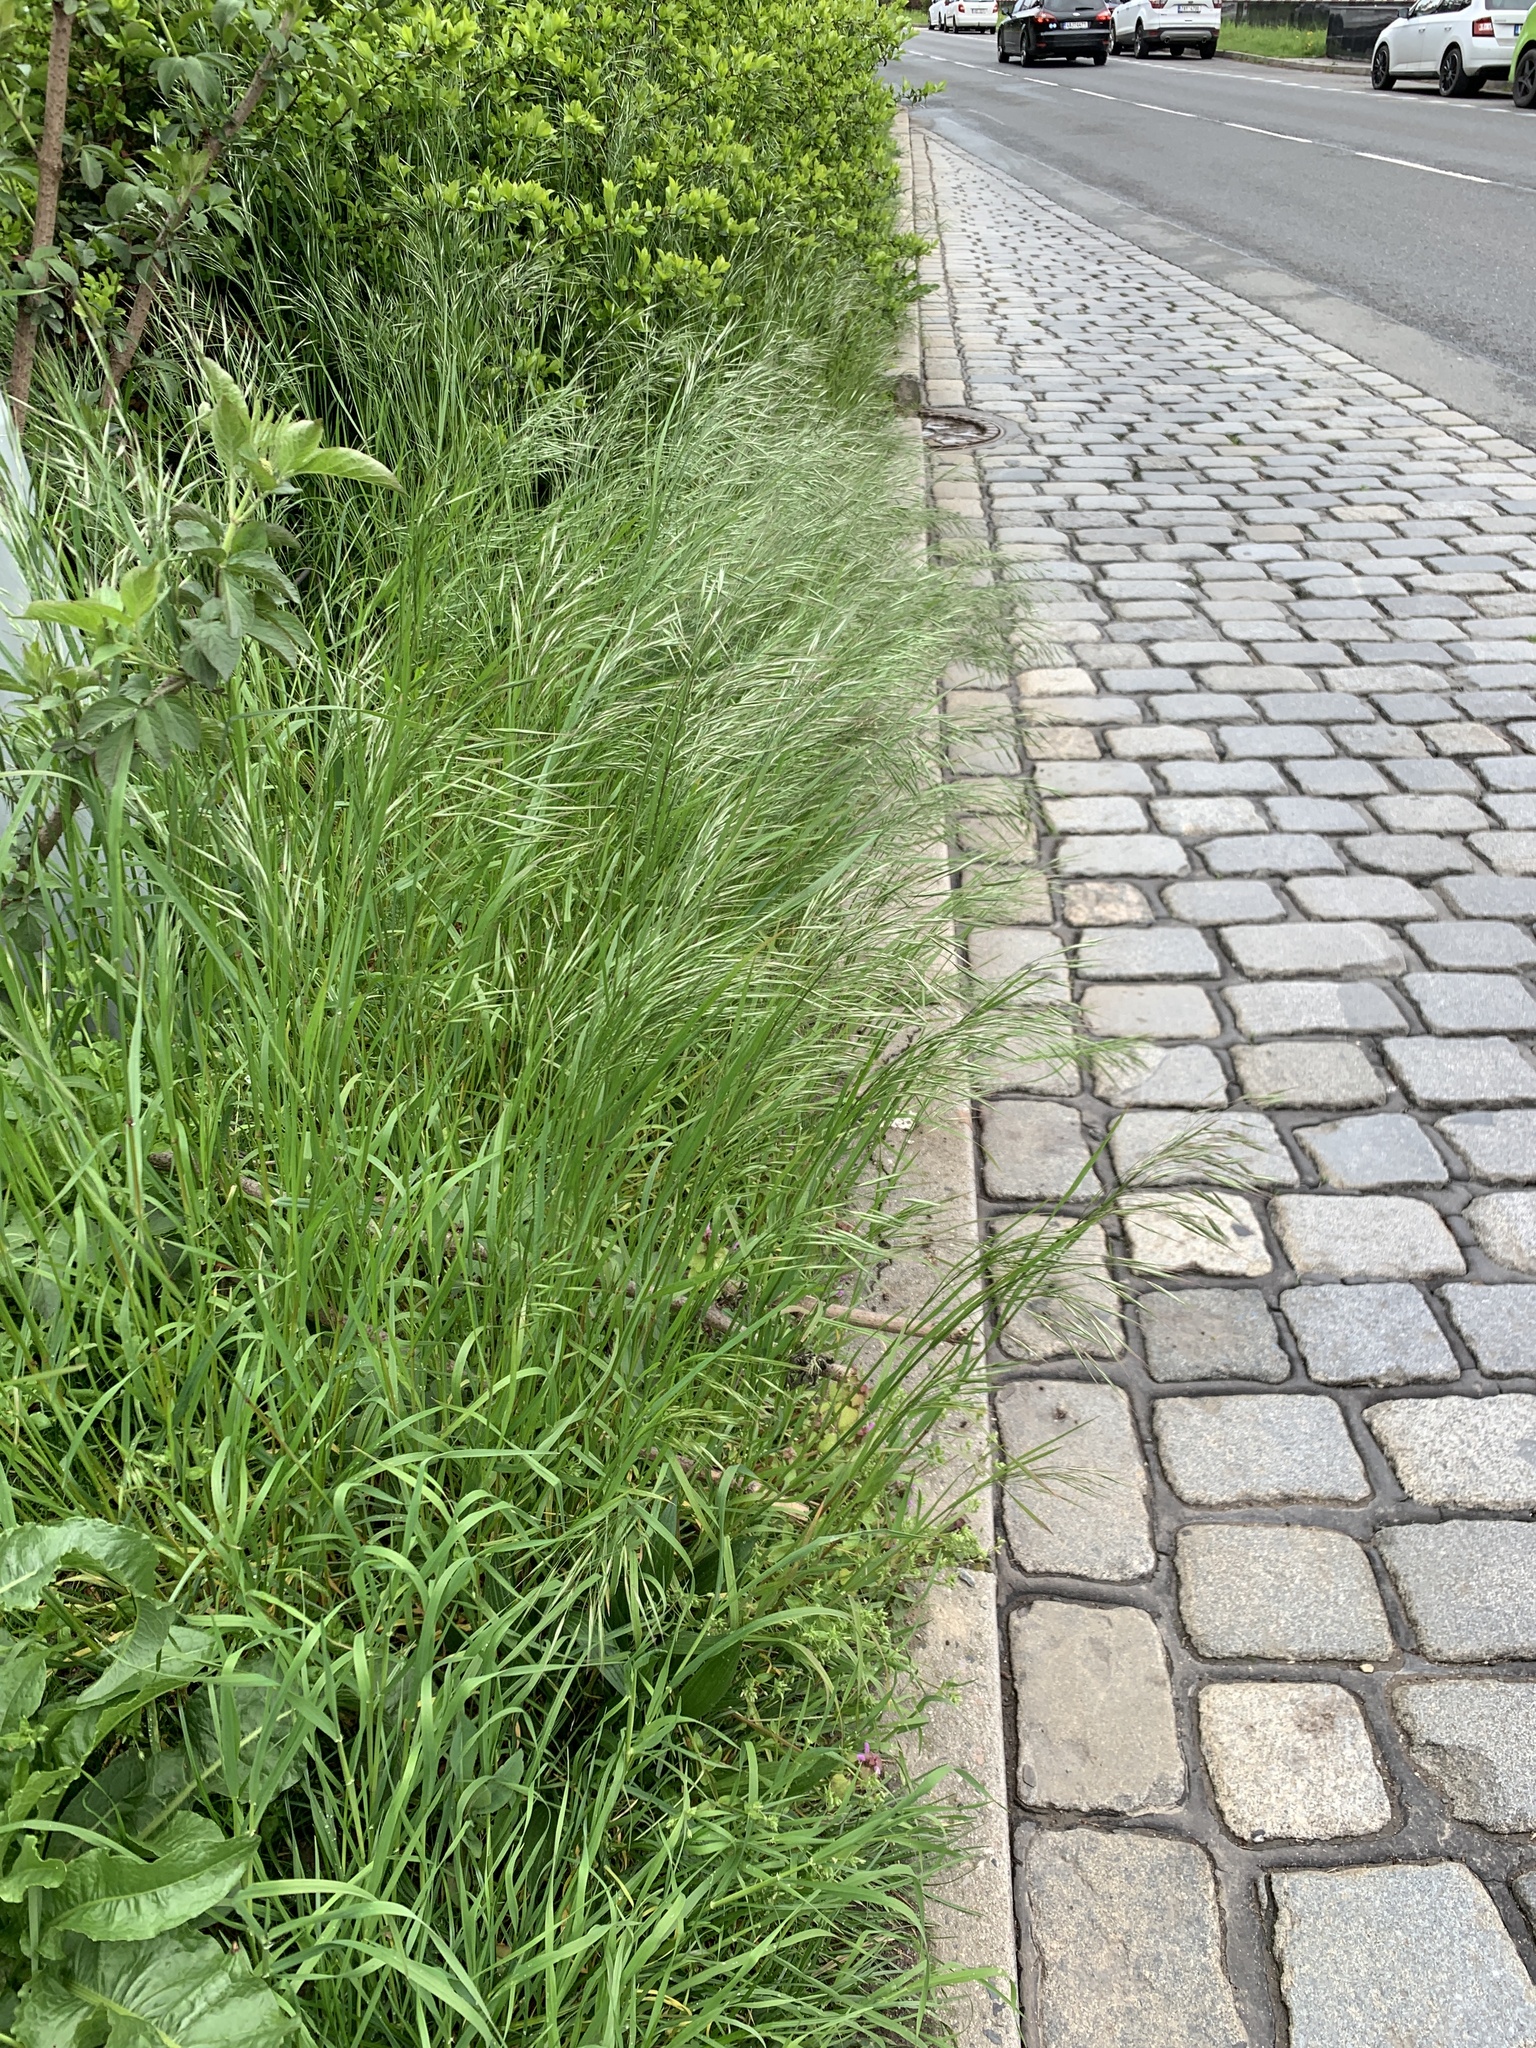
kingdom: Plantae
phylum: Tracheophyta
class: Liliopsida
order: Poales
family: Poaceae
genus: Bromus
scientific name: Bromus sterilis
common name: Poverty brome
